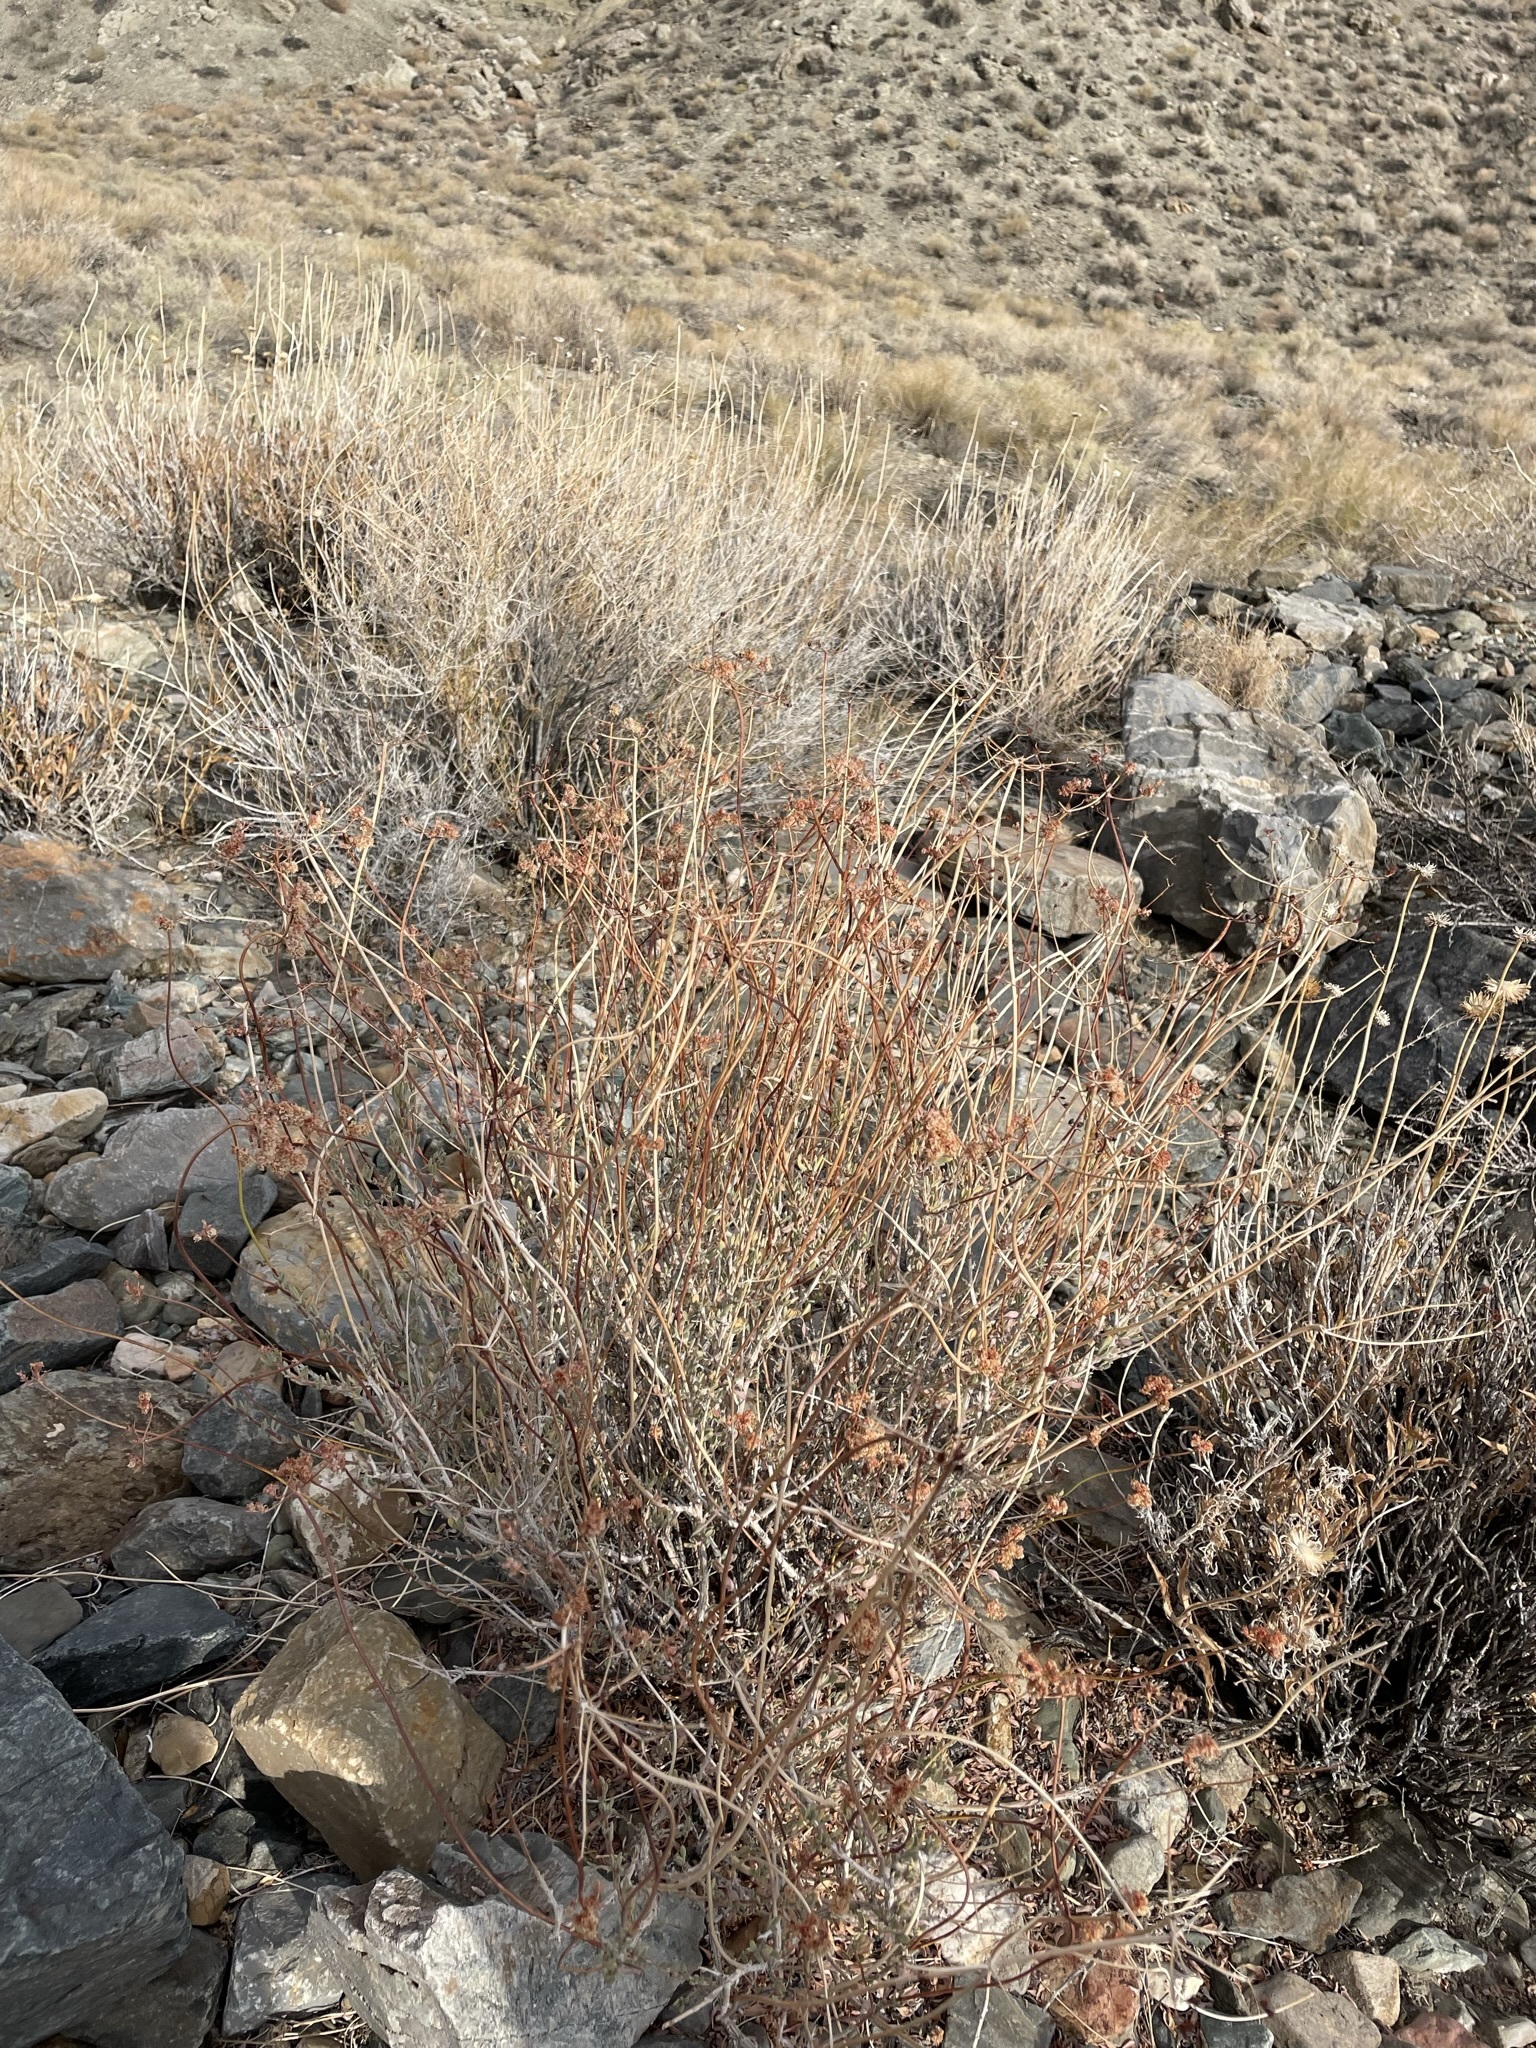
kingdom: Plantae
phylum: Tracheophyta
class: Magnoliopsida
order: Caryophyllales
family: Polygonaceae
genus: Eriogonum
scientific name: Eriogonum fasciculatum
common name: California wild buckwheat
